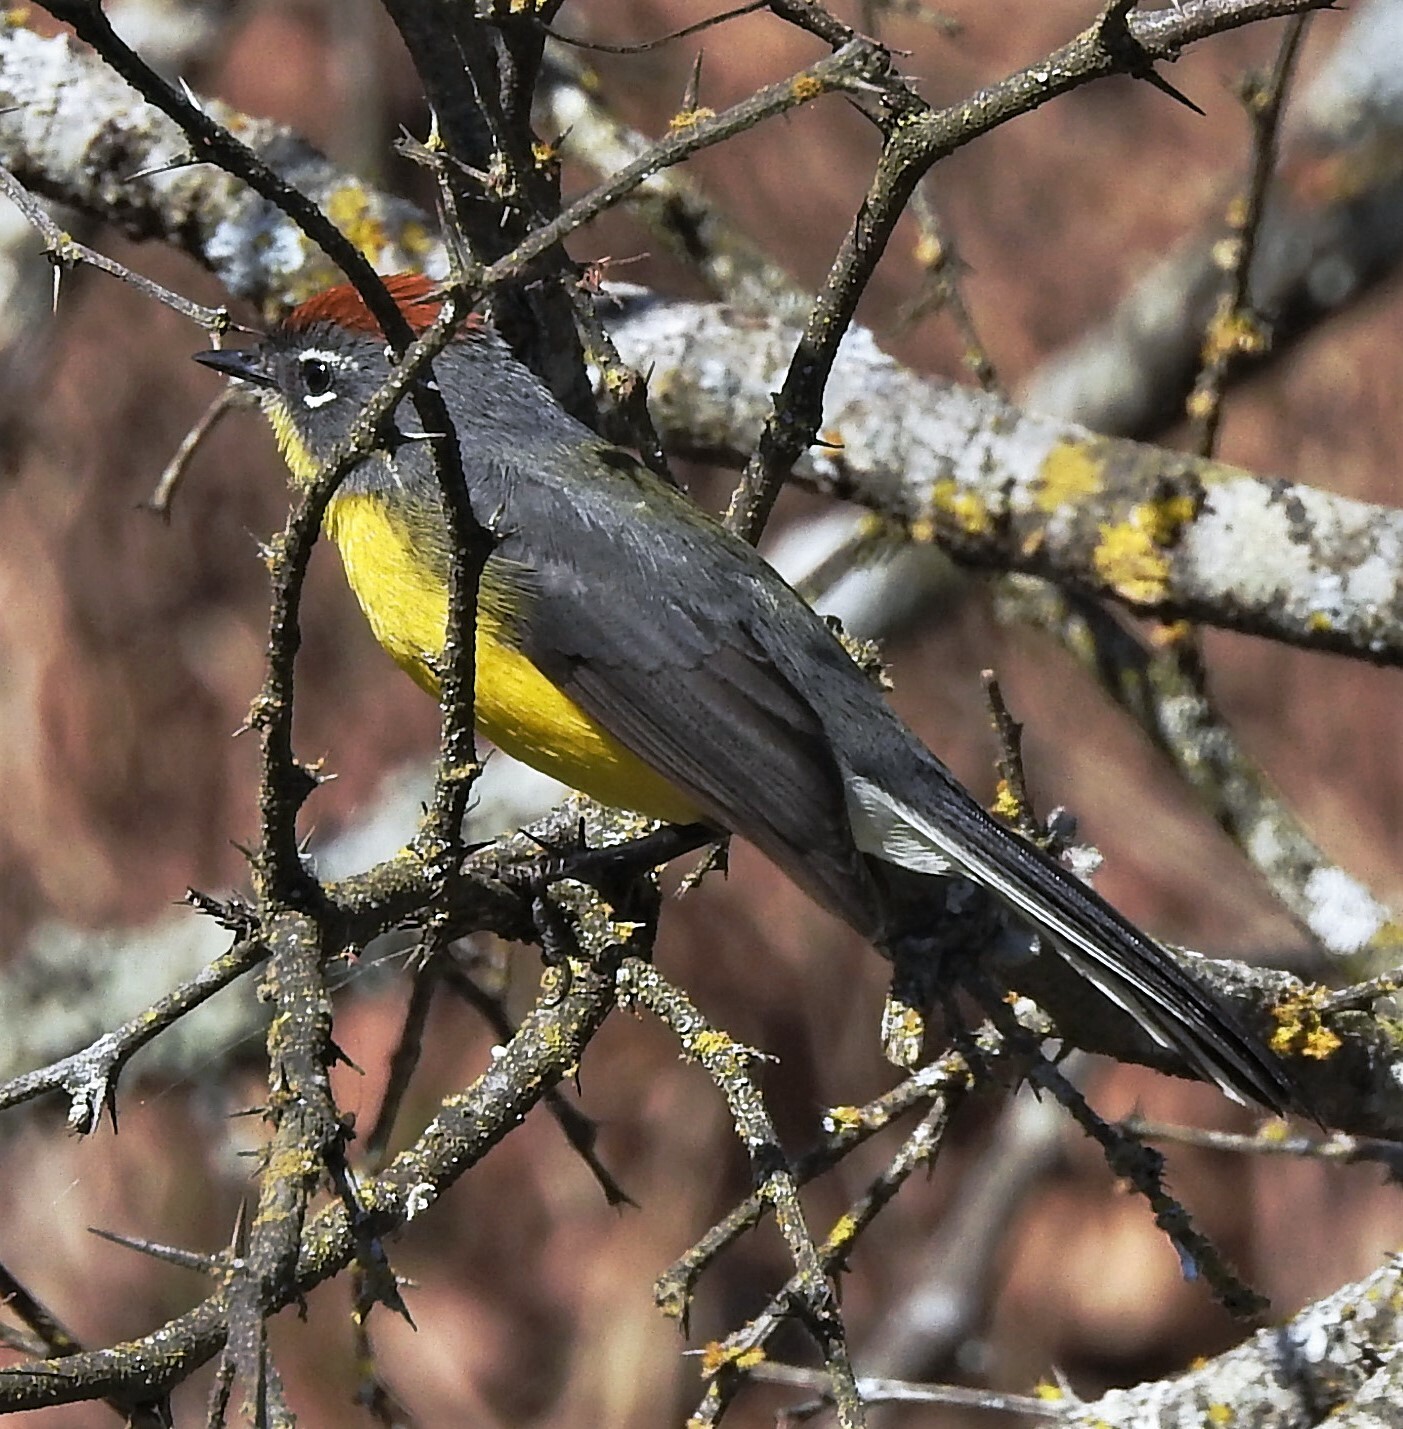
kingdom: Animalia
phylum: Chordata
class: Aves
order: Passeriformes
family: Parulidae
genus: Myioborus
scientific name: Myioborus brunniceps
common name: Brown-capped whitestart
